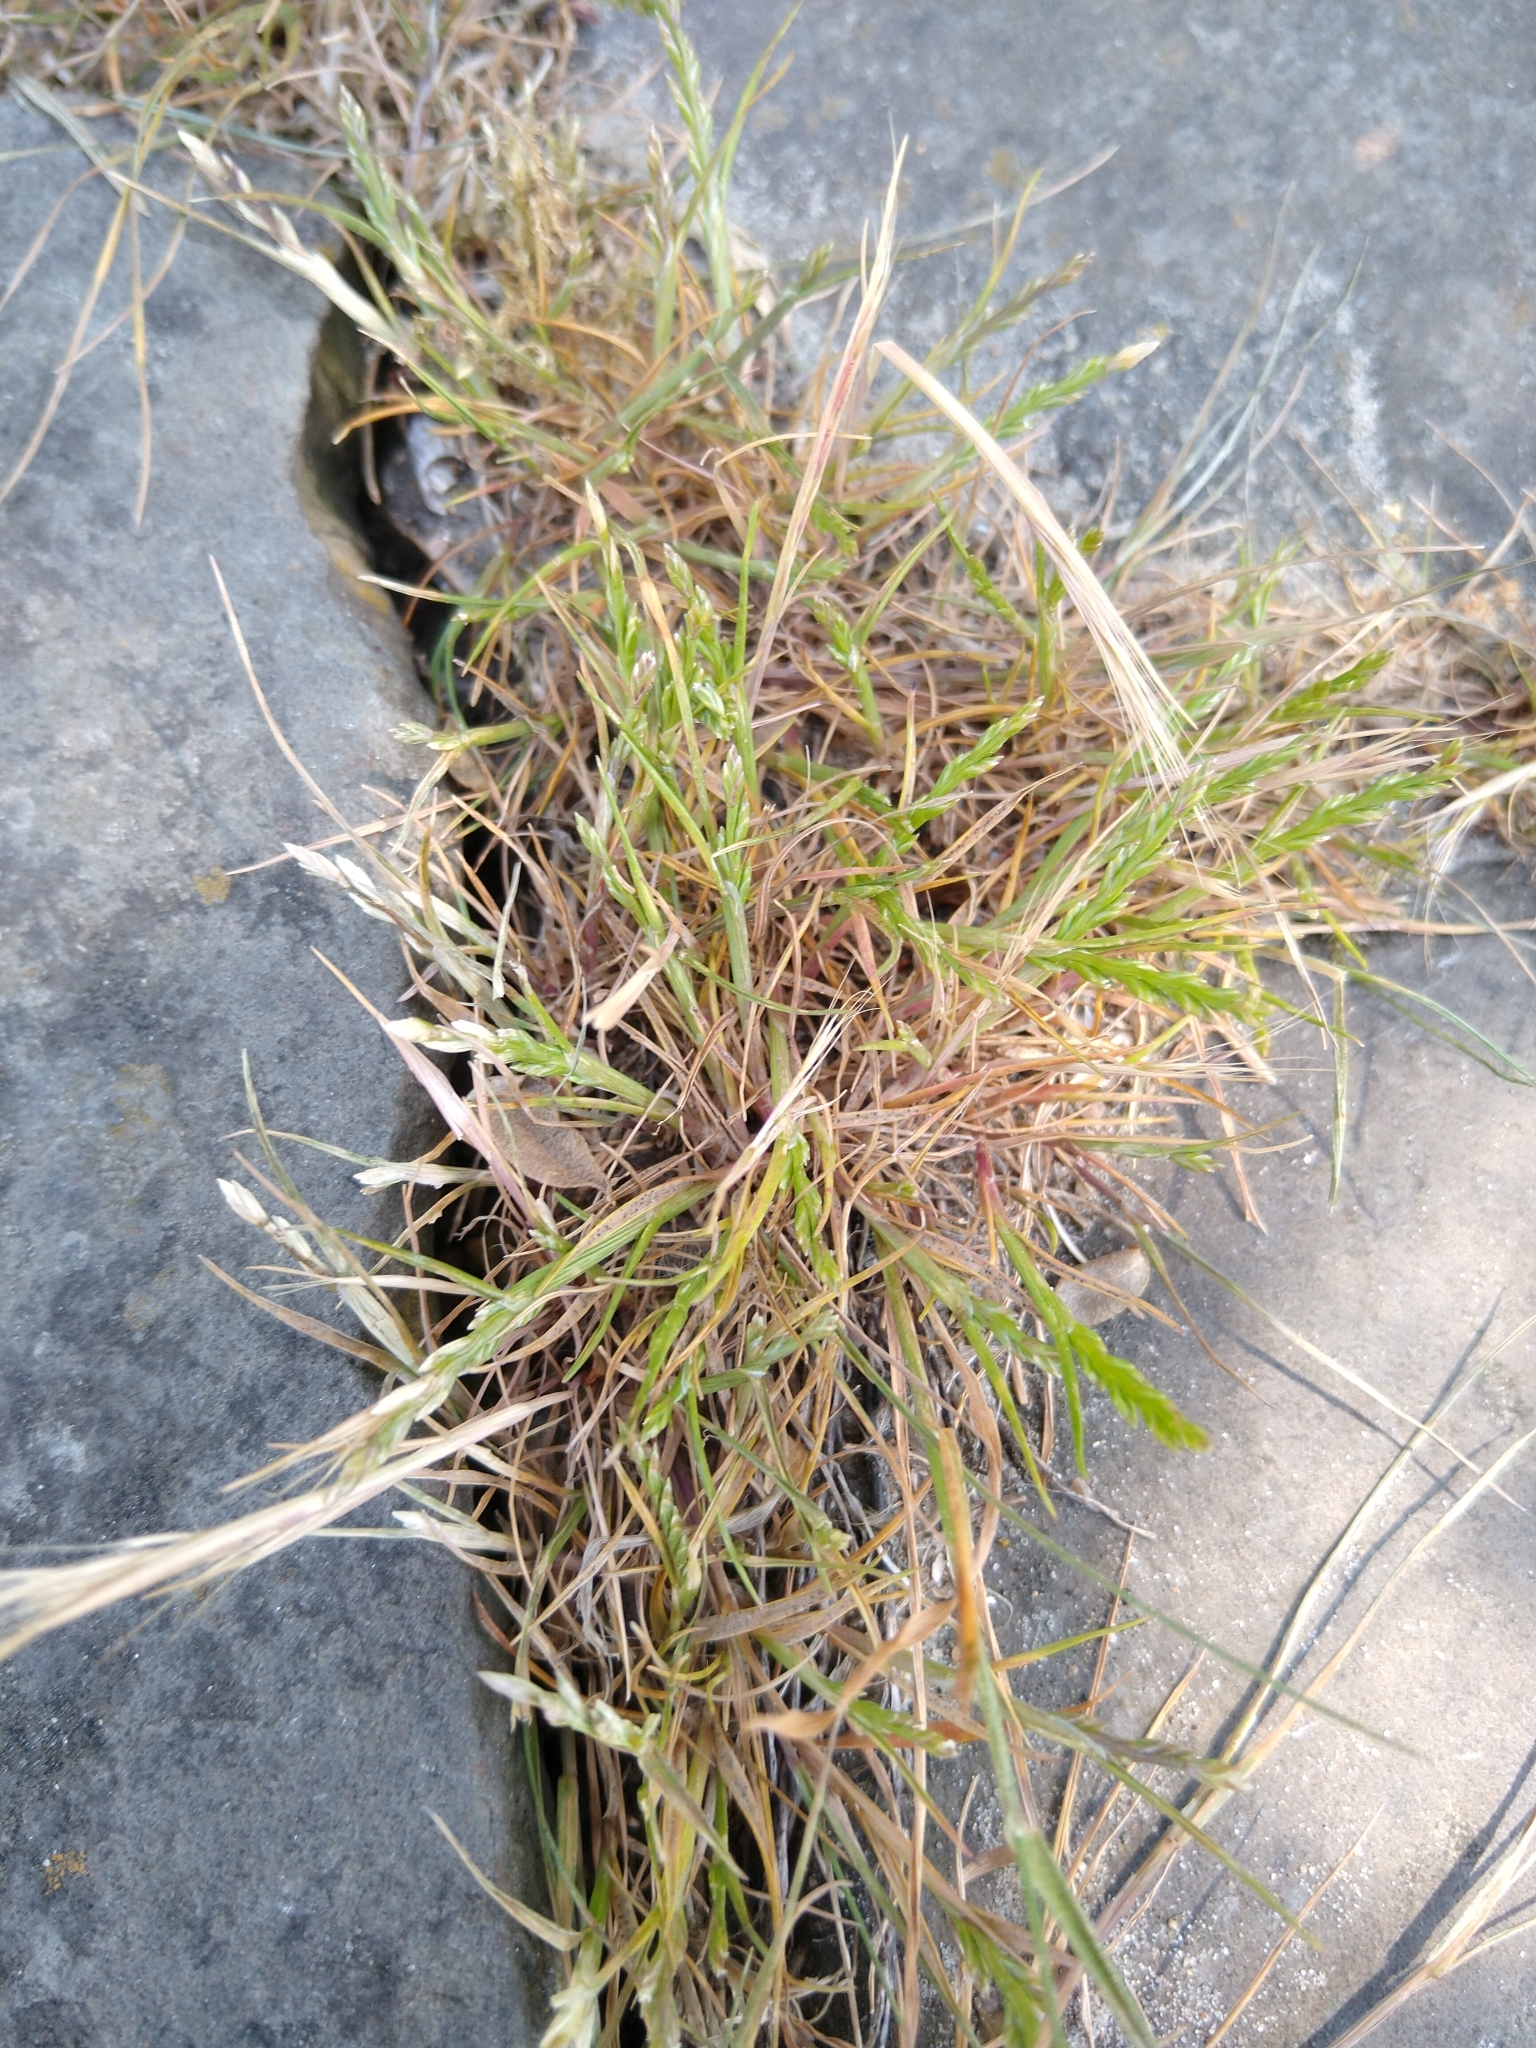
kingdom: Plantae
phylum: Tracheophyta
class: Liliopsida
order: Poales
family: Poaceae
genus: Catapodium
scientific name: Catapodium marinum
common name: Sea fern-grass
